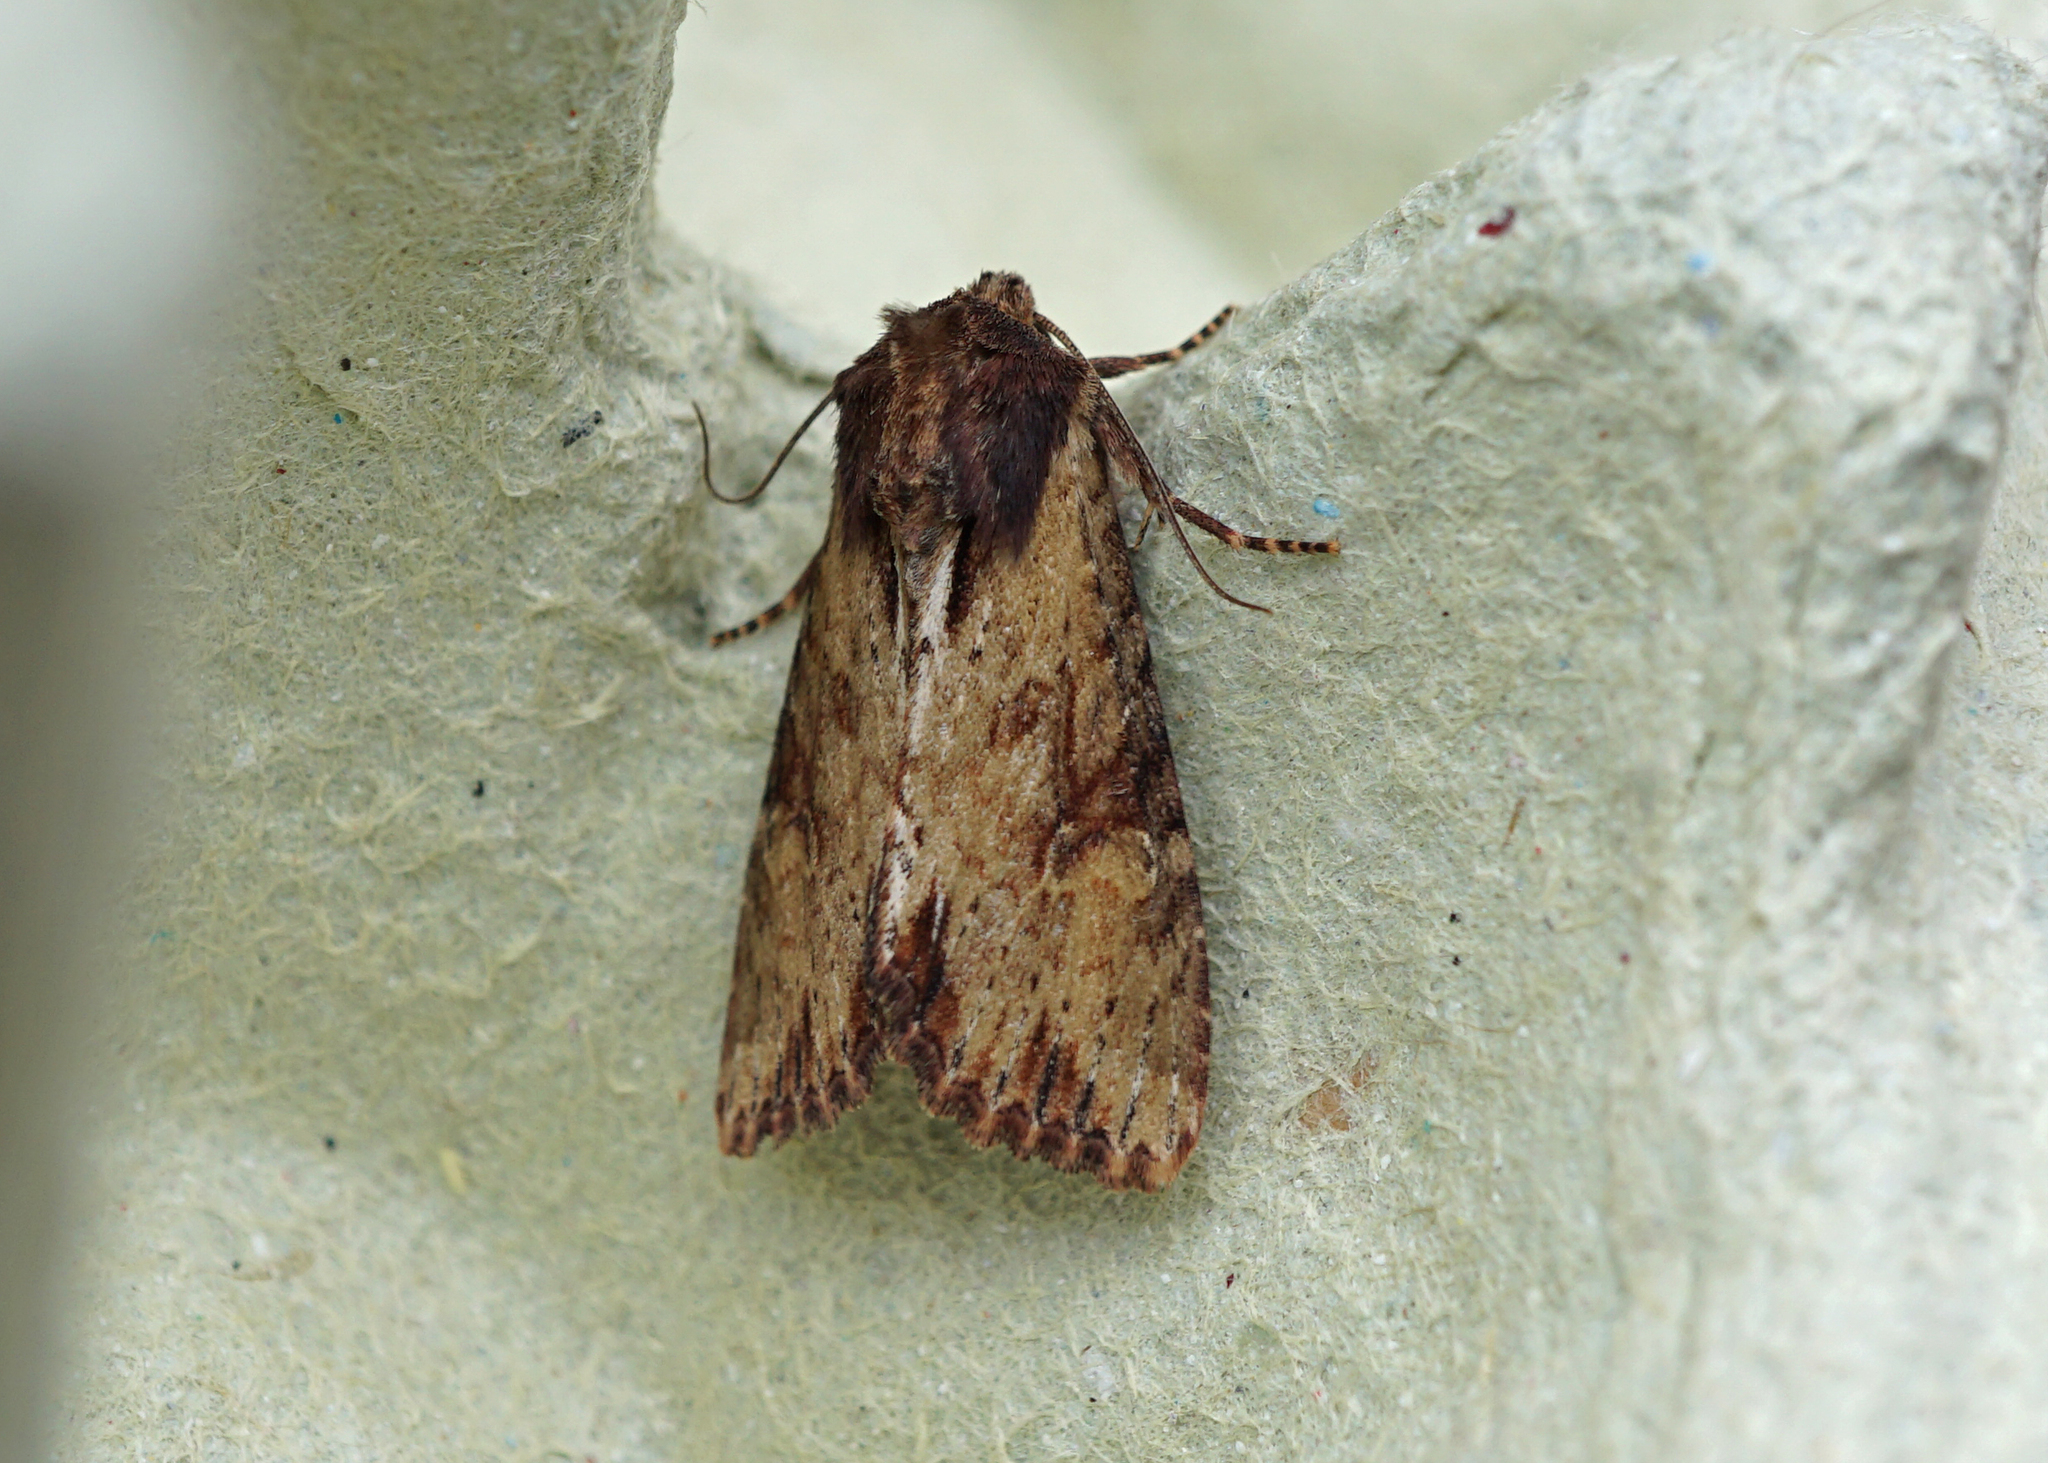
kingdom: Animalia
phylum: Arthropoda
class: Insecta
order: Lepidoptera
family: Noctuidae
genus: Apamea
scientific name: Apamea crenata
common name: Clouded-bordered brindle
